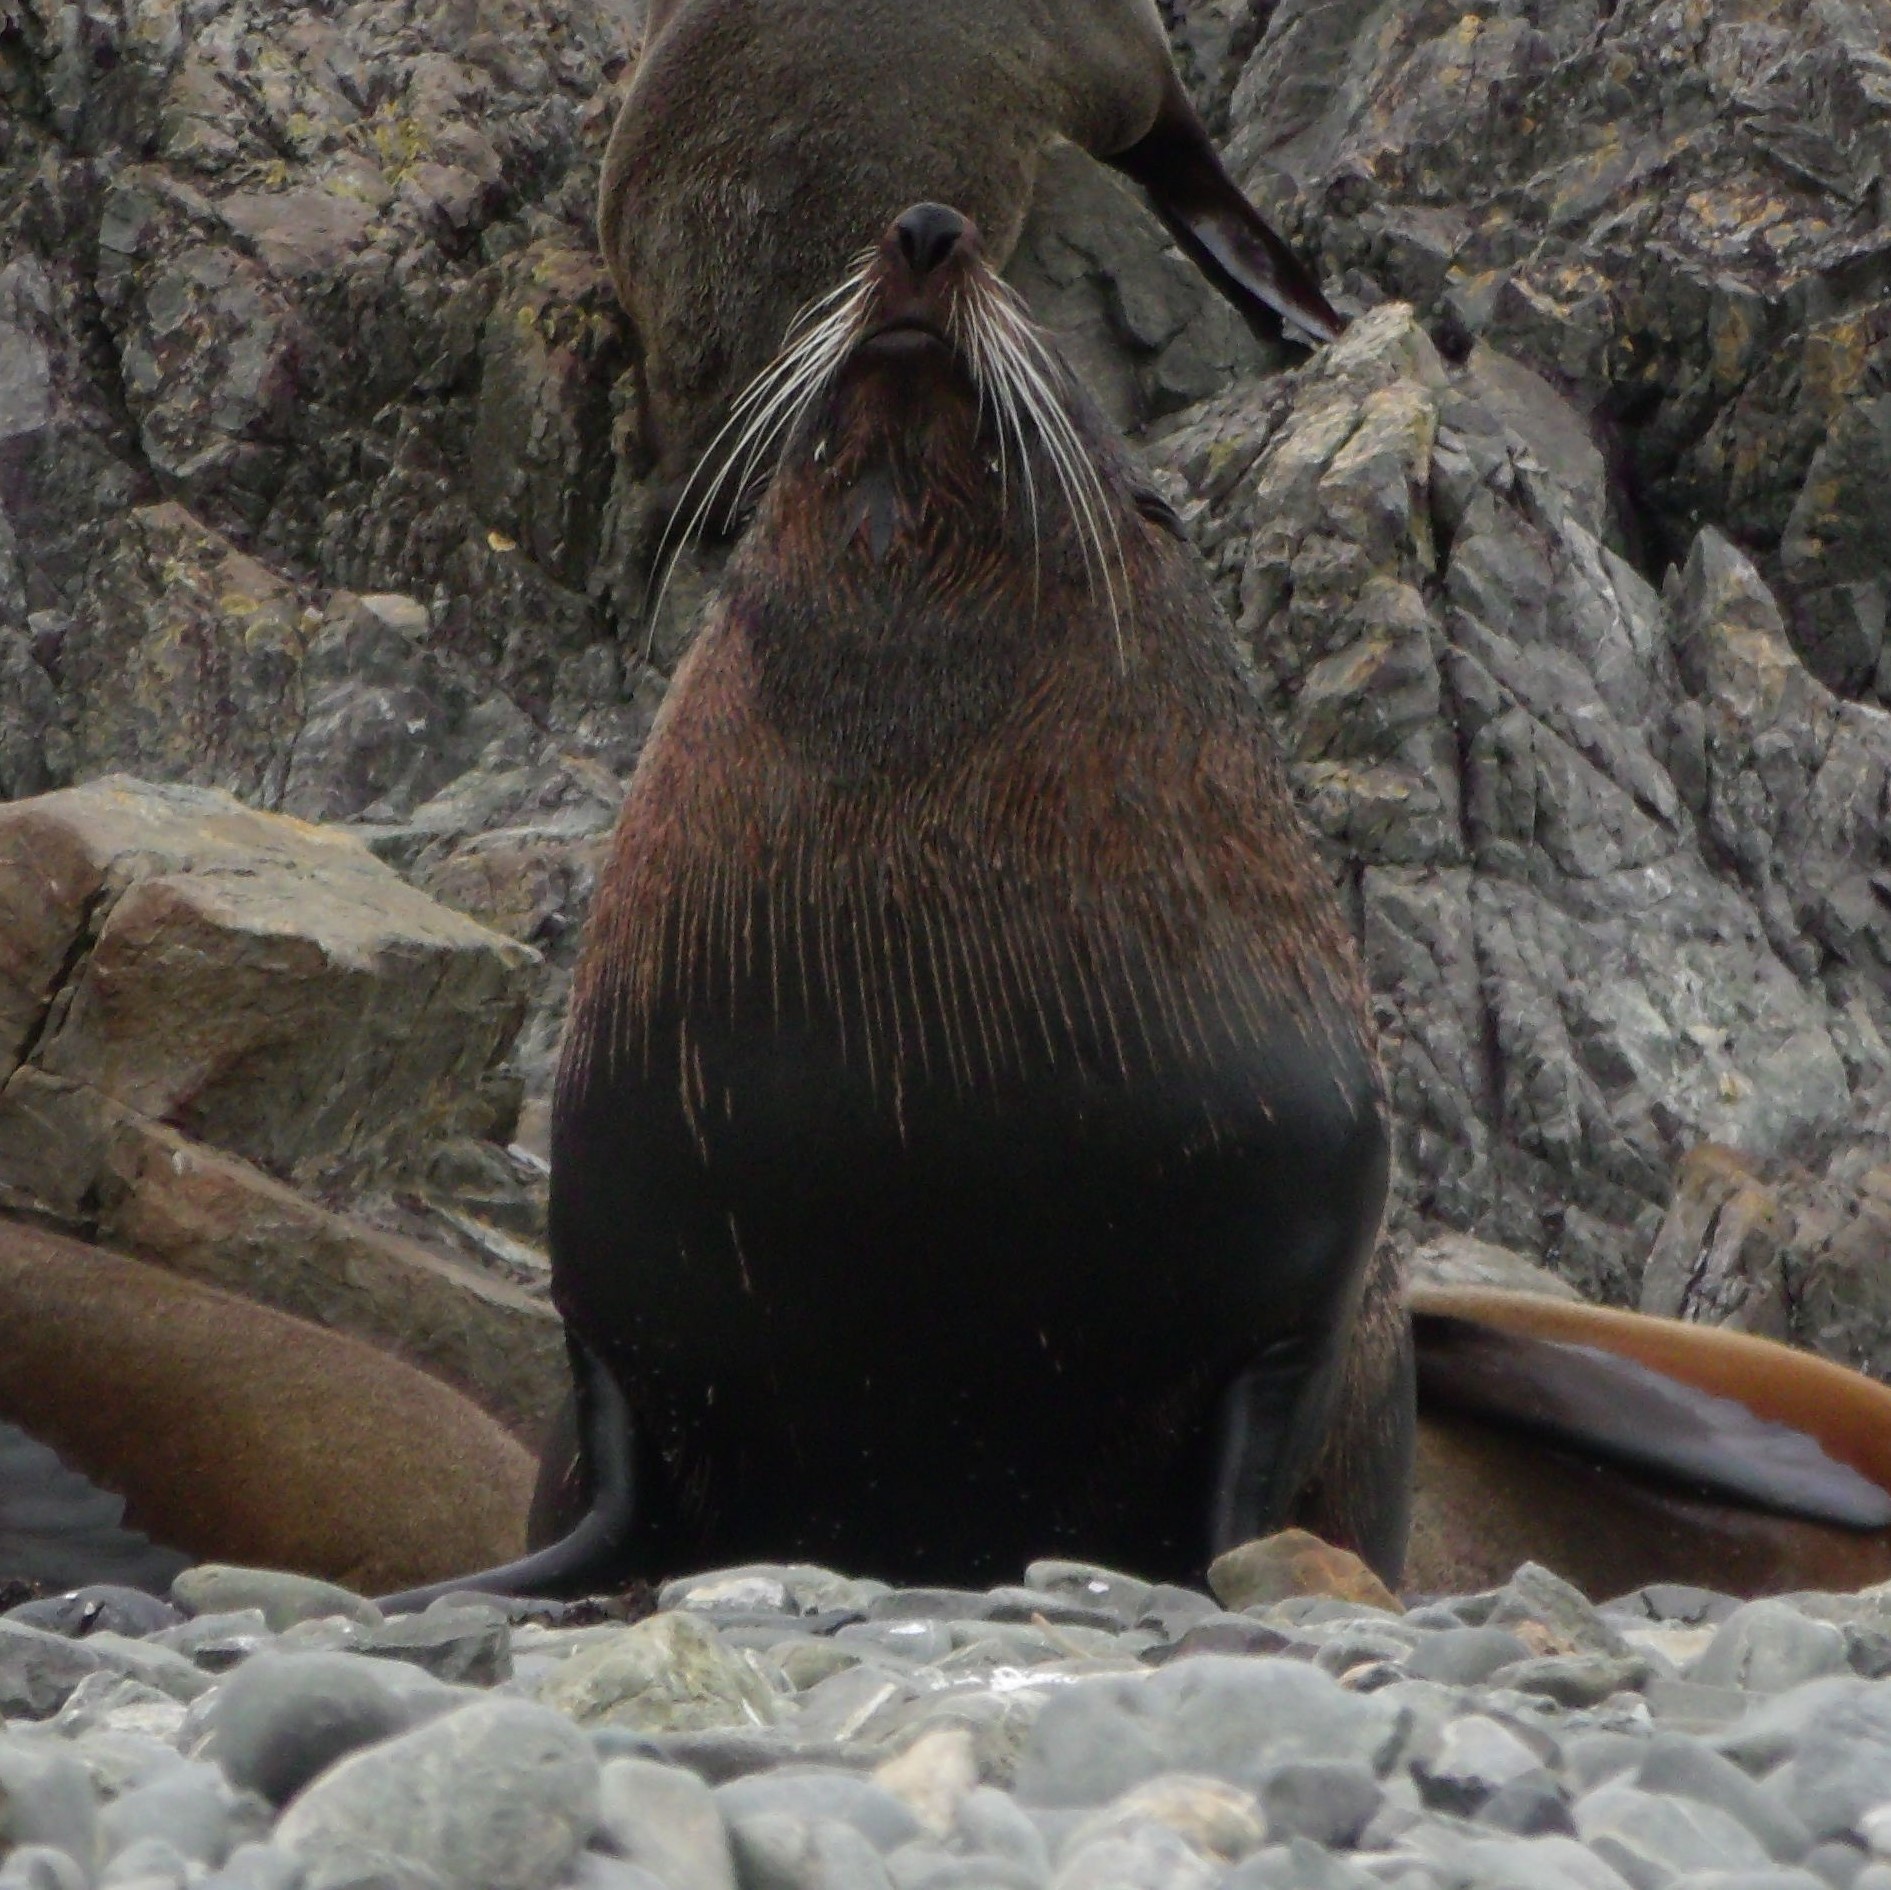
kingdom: Animalia
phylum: Chordata
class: Mammalia
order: Carnivora
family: Otariidae
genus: Arctocephalus
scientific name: Arctocephalus forsteri
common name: New zealand fur seal
